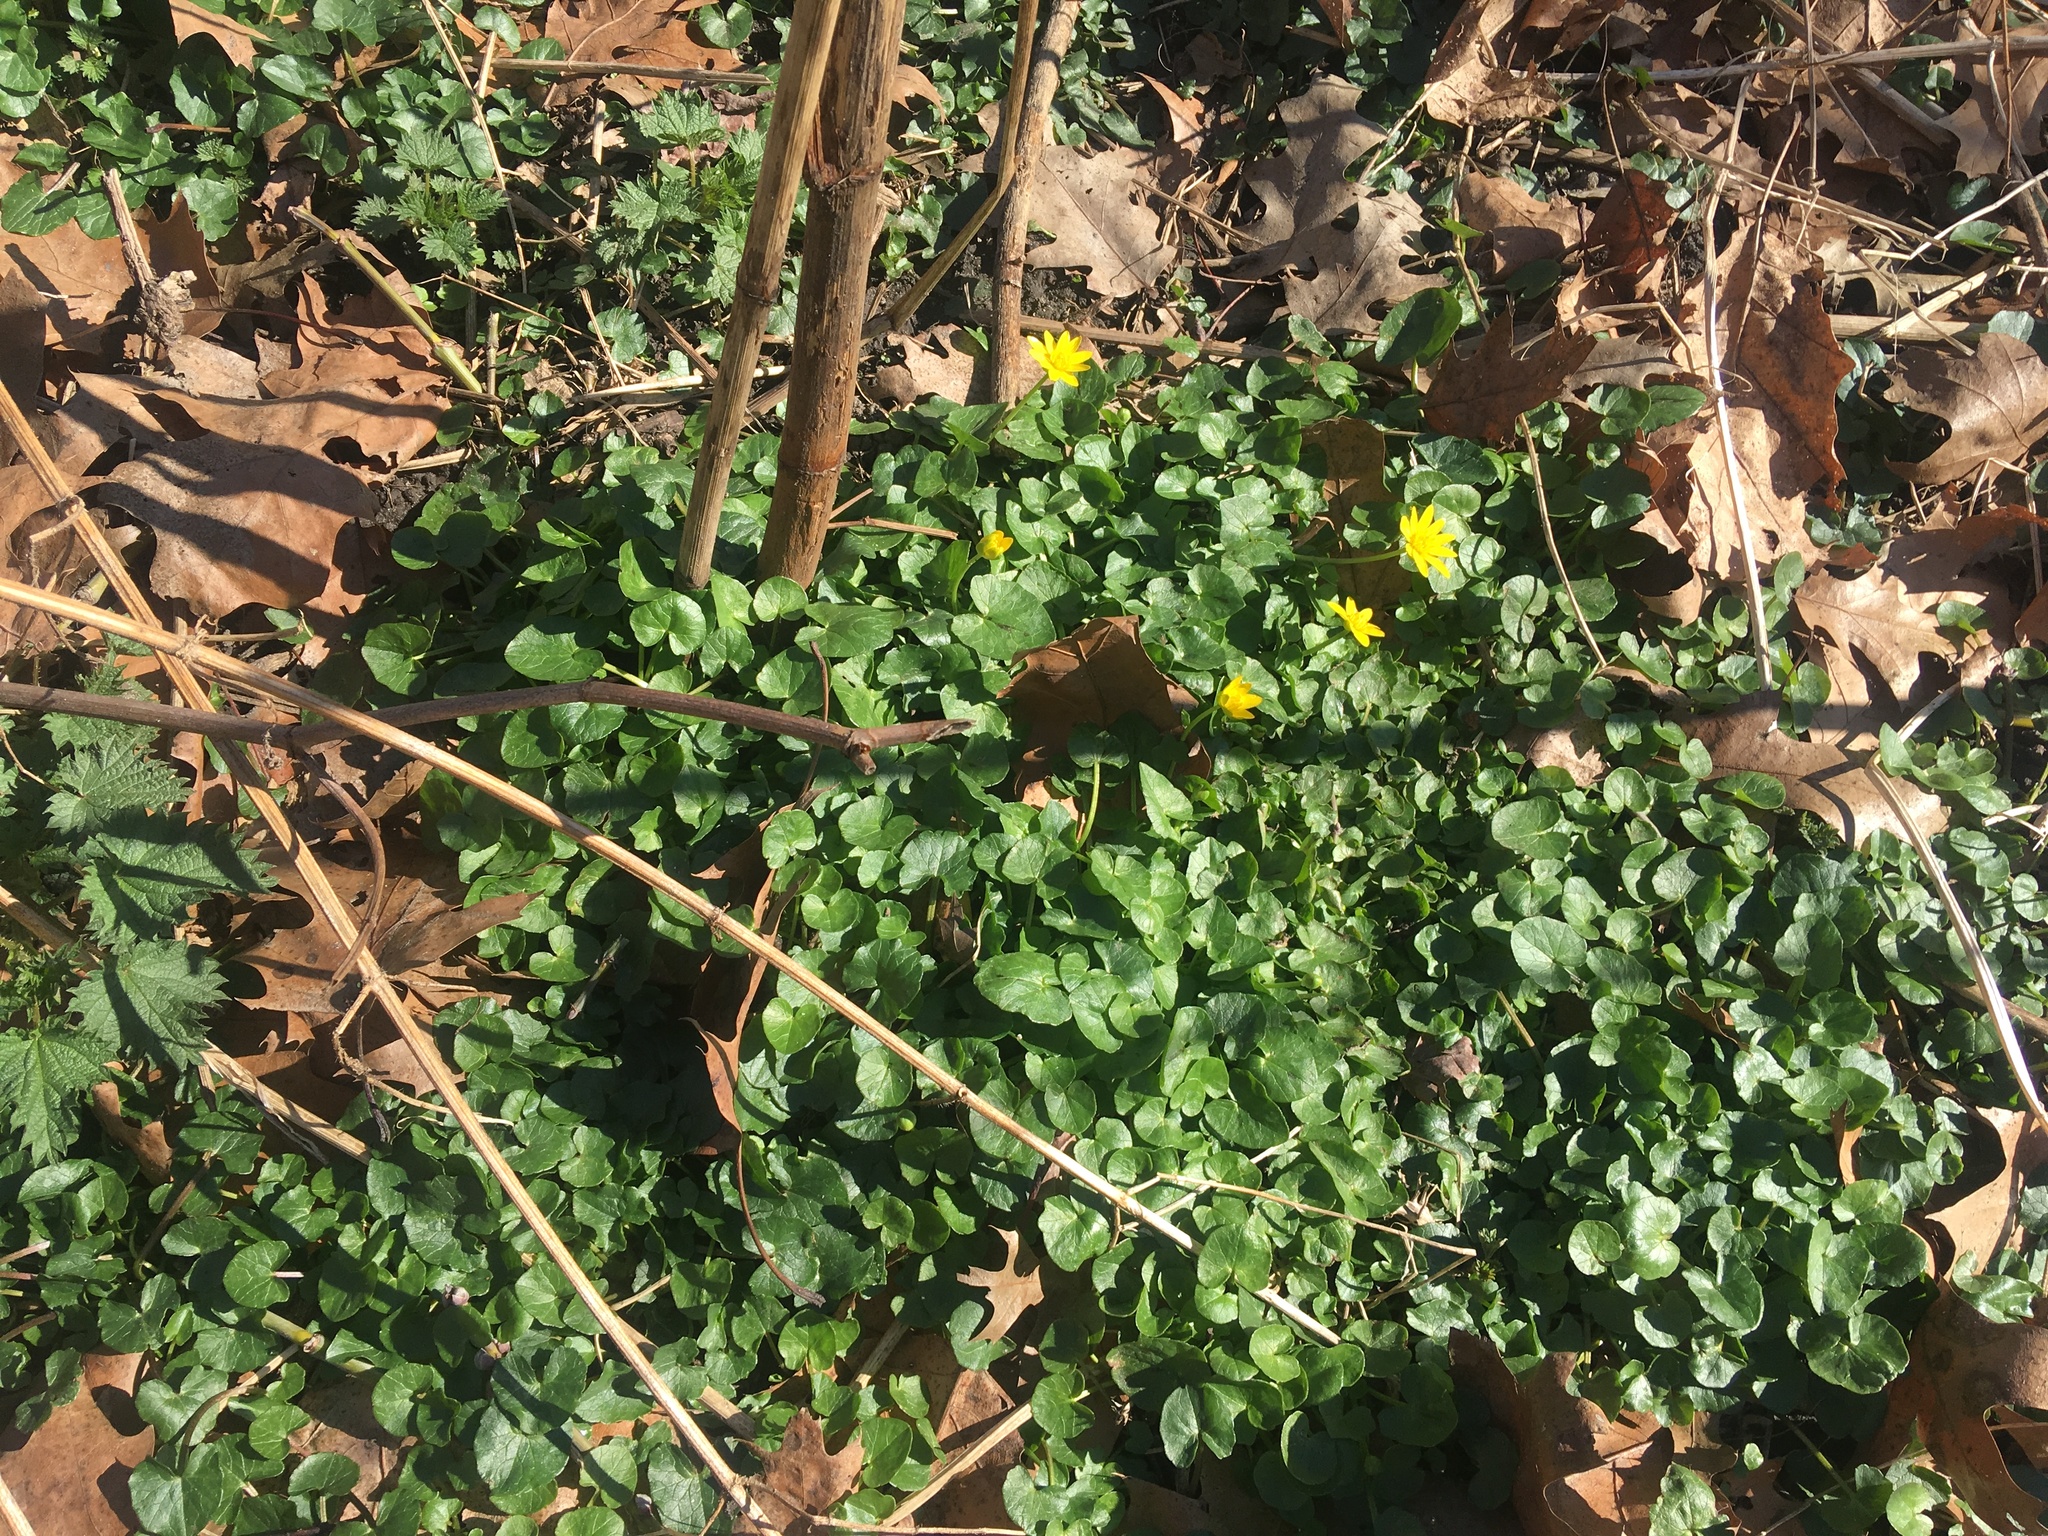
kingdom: Plantae
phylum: Tracheophyta
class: Magnoliopsida
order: Ranunculales
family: Ranunculaceae
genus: Ficaria
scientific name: Ficaria verna
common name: Lesser celandine
